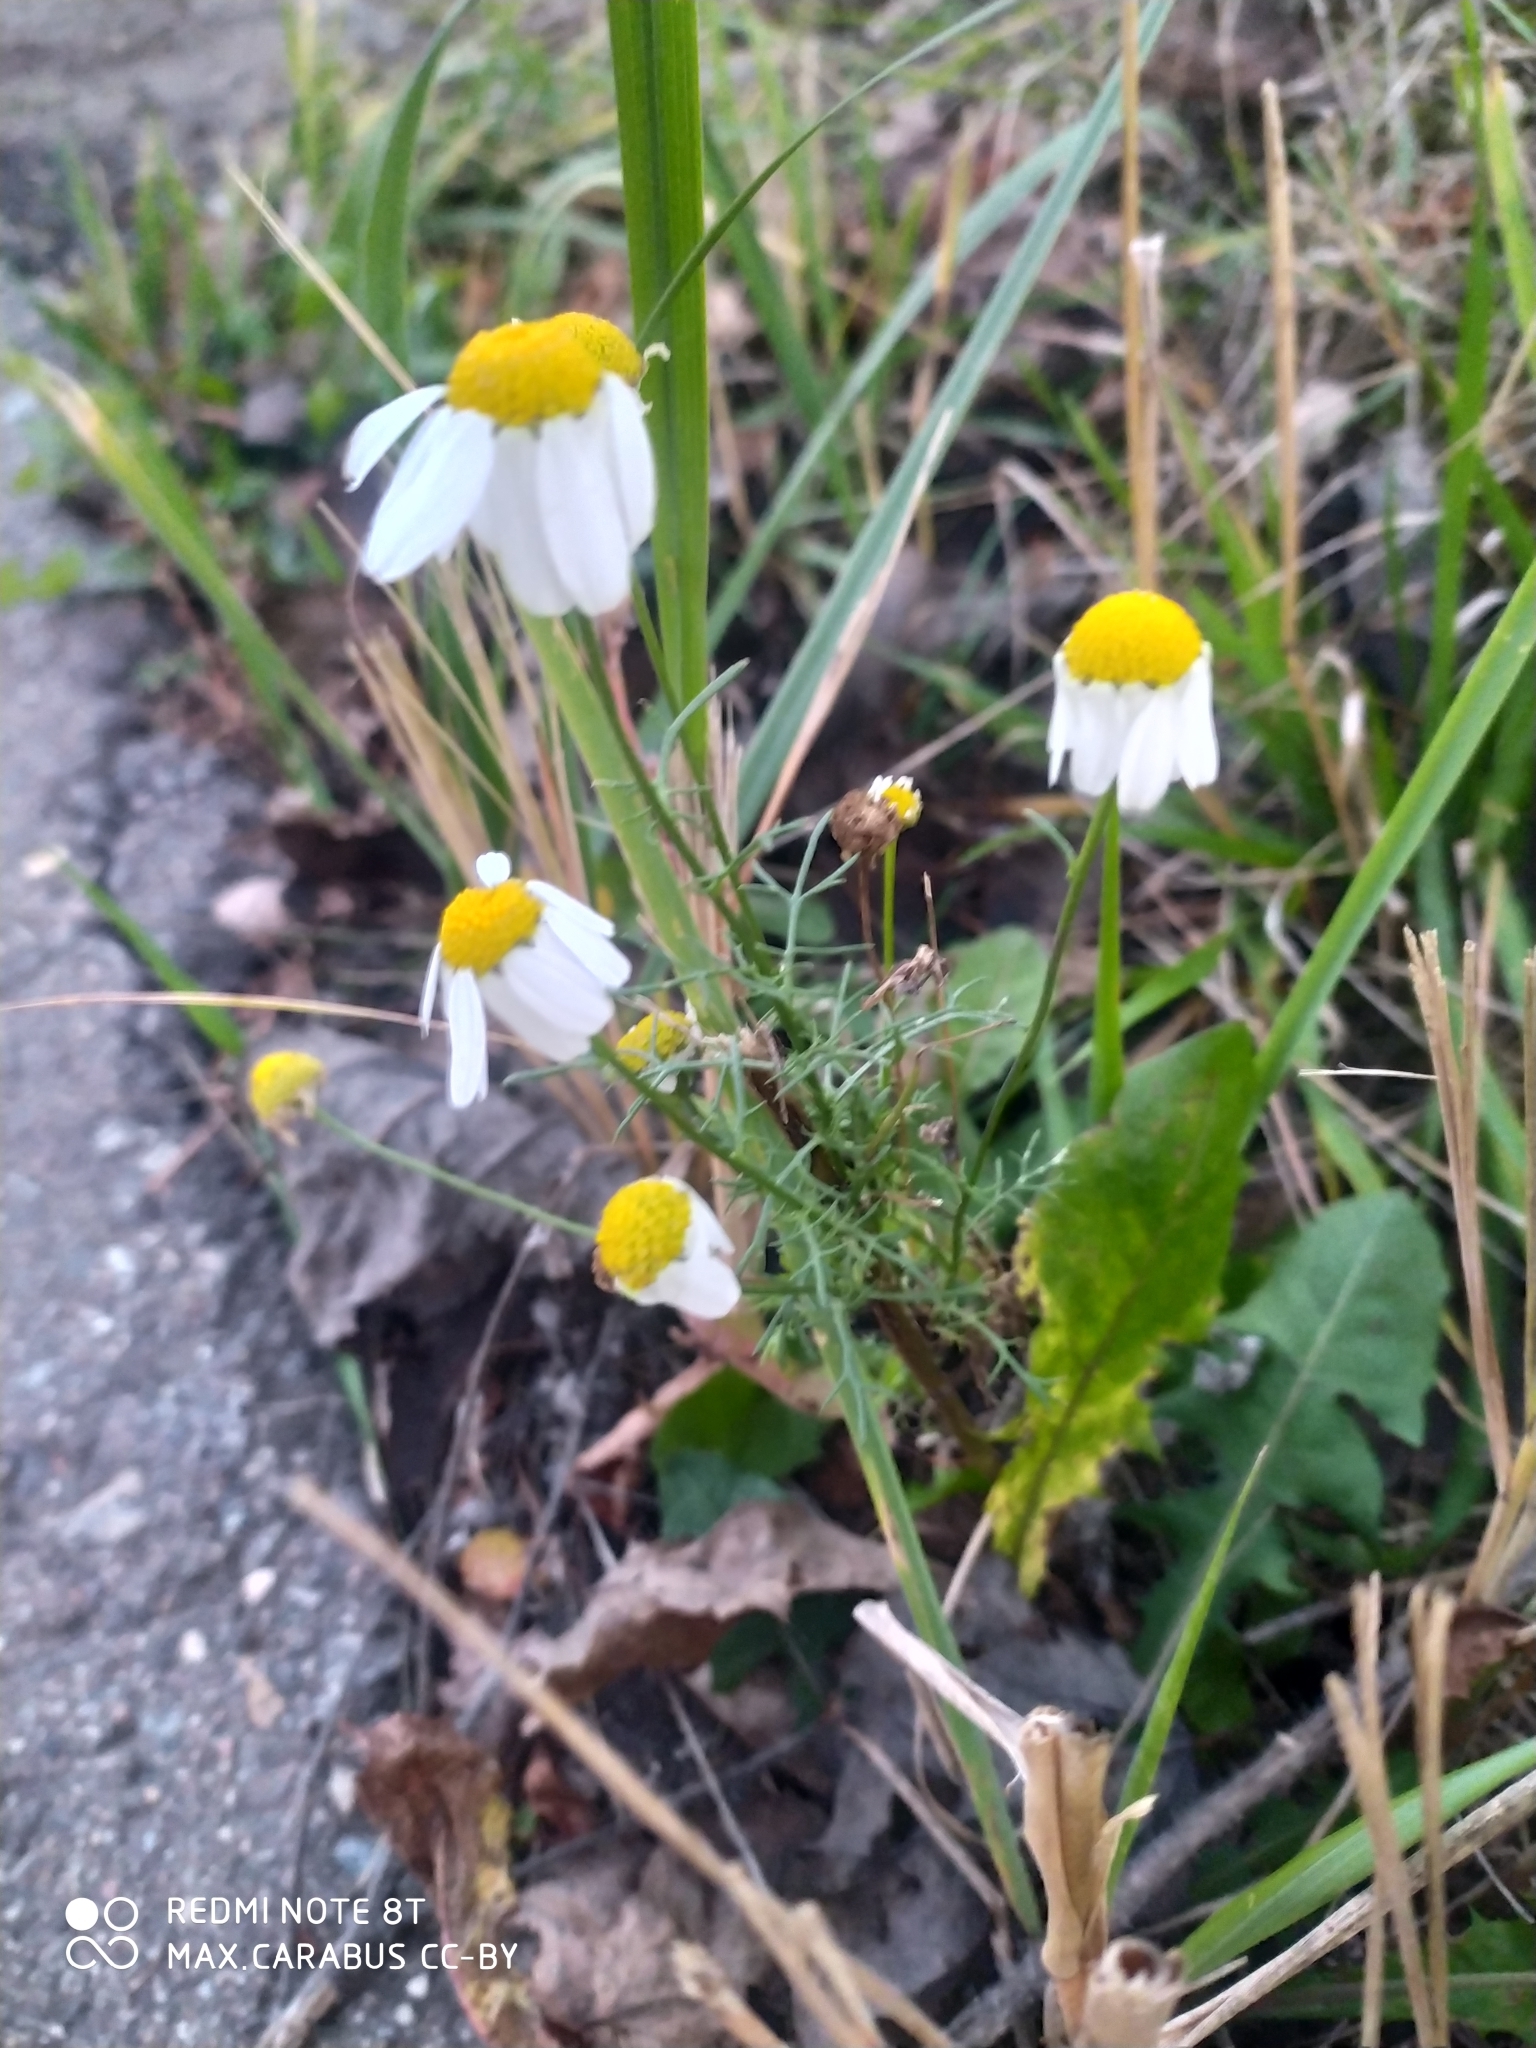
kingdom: Plantae
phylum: Tracheophyta
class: Magnoliopsida
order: Asterales
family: Asteraceae
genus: Tripleurospermum
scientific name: Tripleurospermum inodorum
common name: Scentless mayweed
